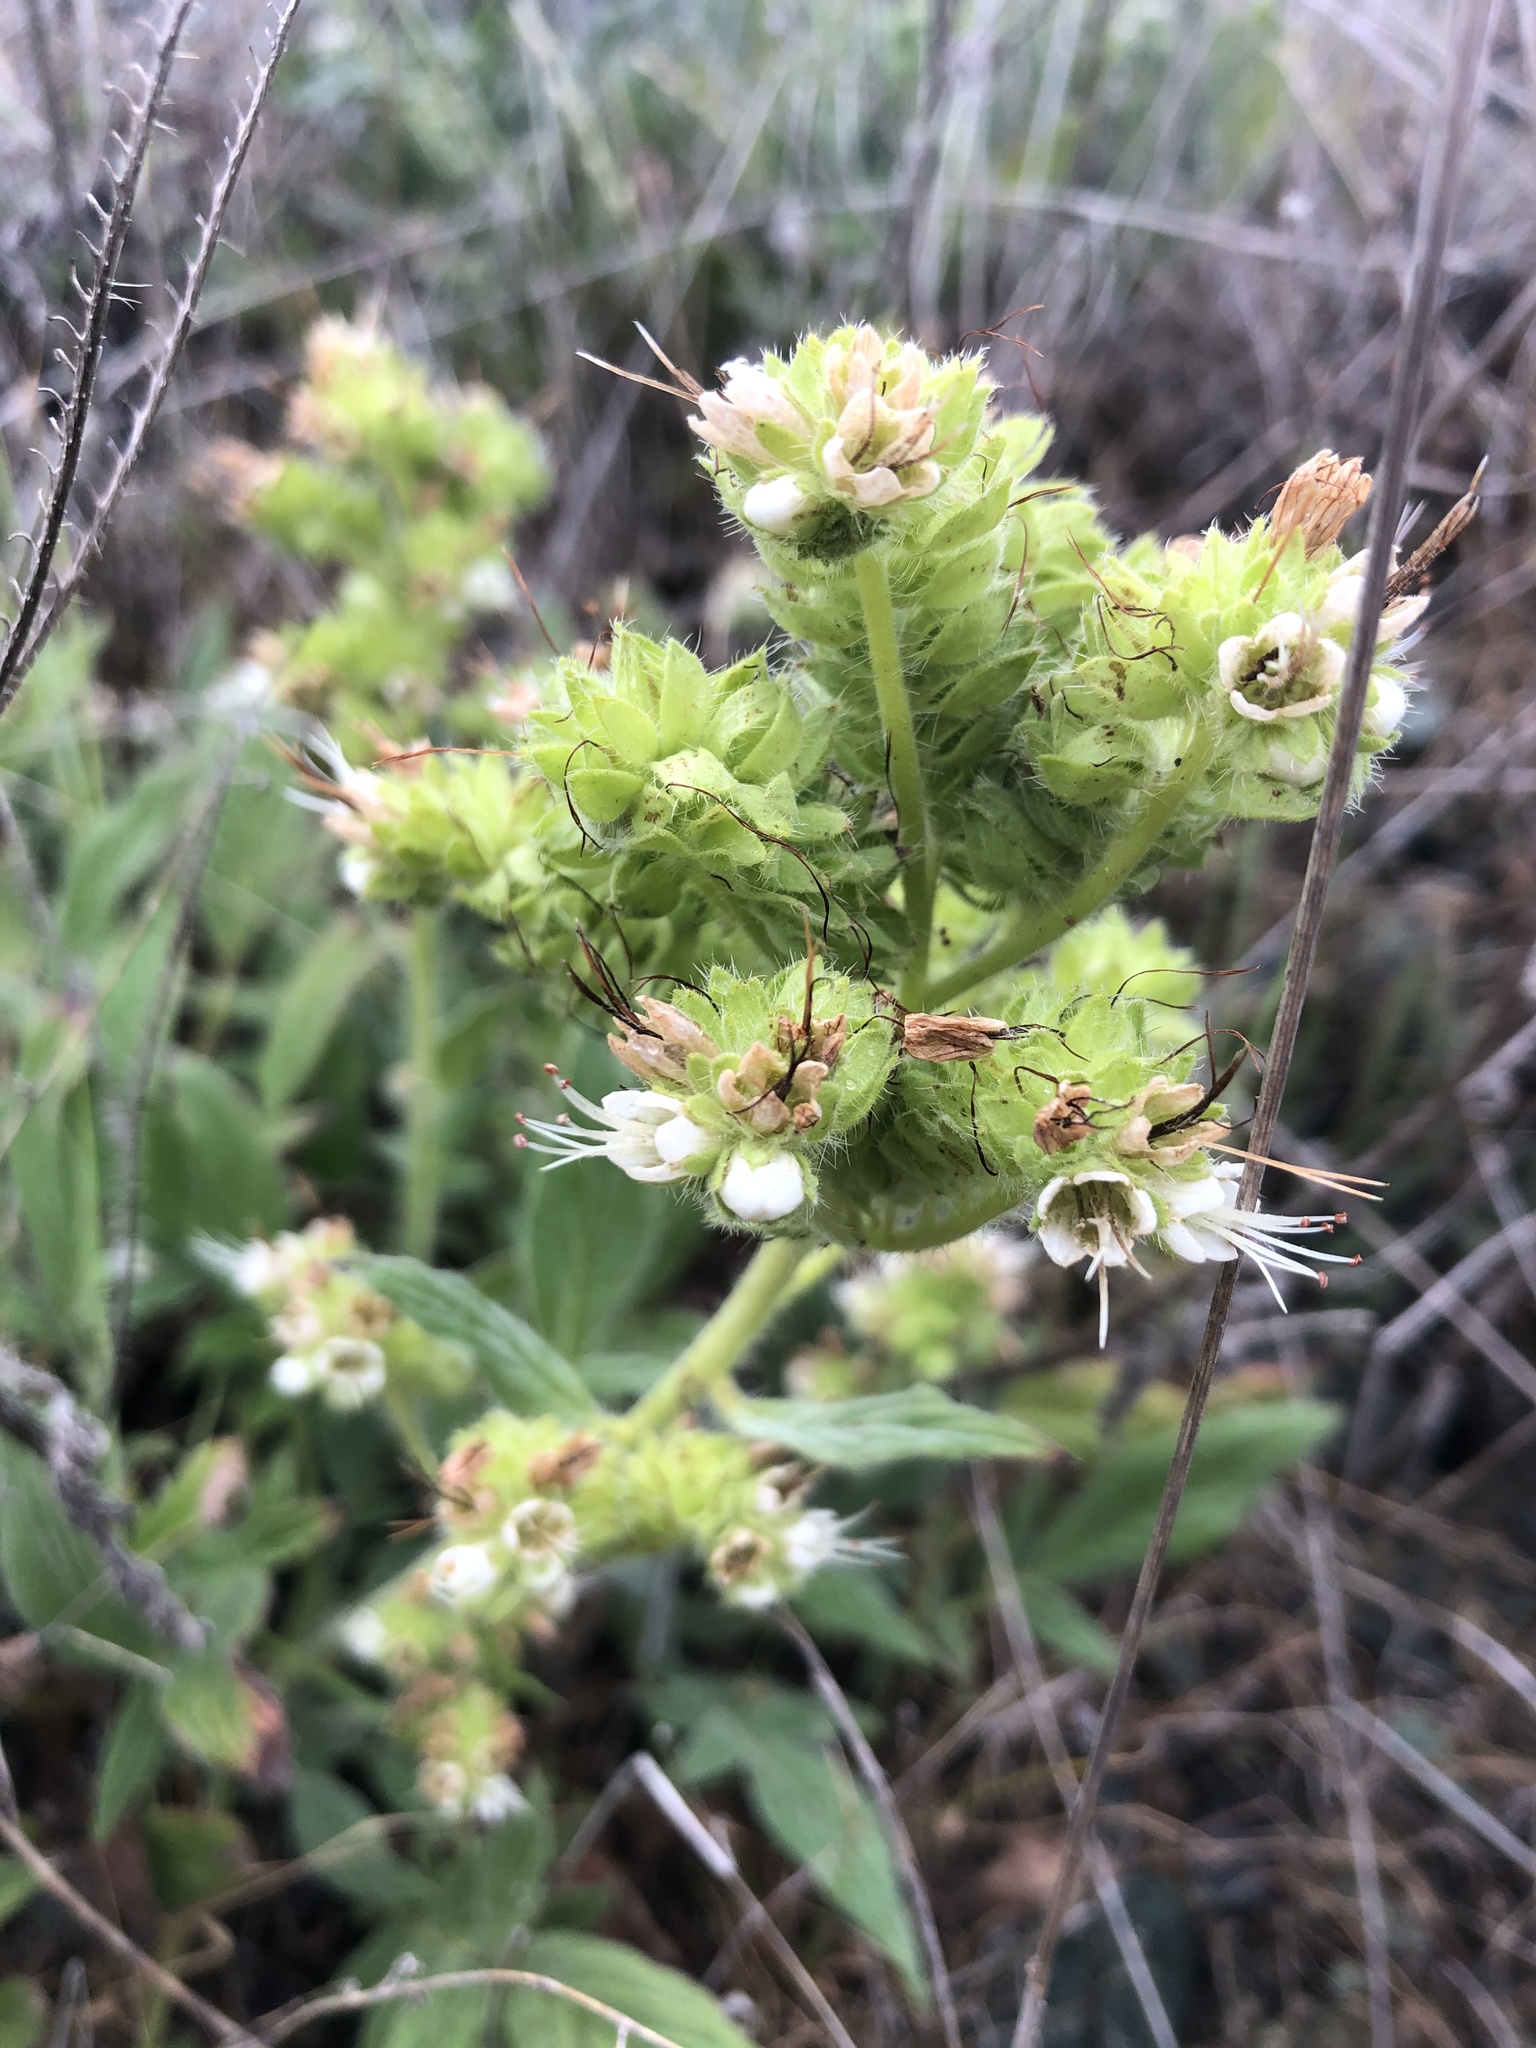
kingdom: Plantae
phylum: Tracheophyta
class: Magnoliopsida
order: Boraginales
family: Hydrophyllaceae
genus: Phacelia
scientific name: Phacelia imbricata
